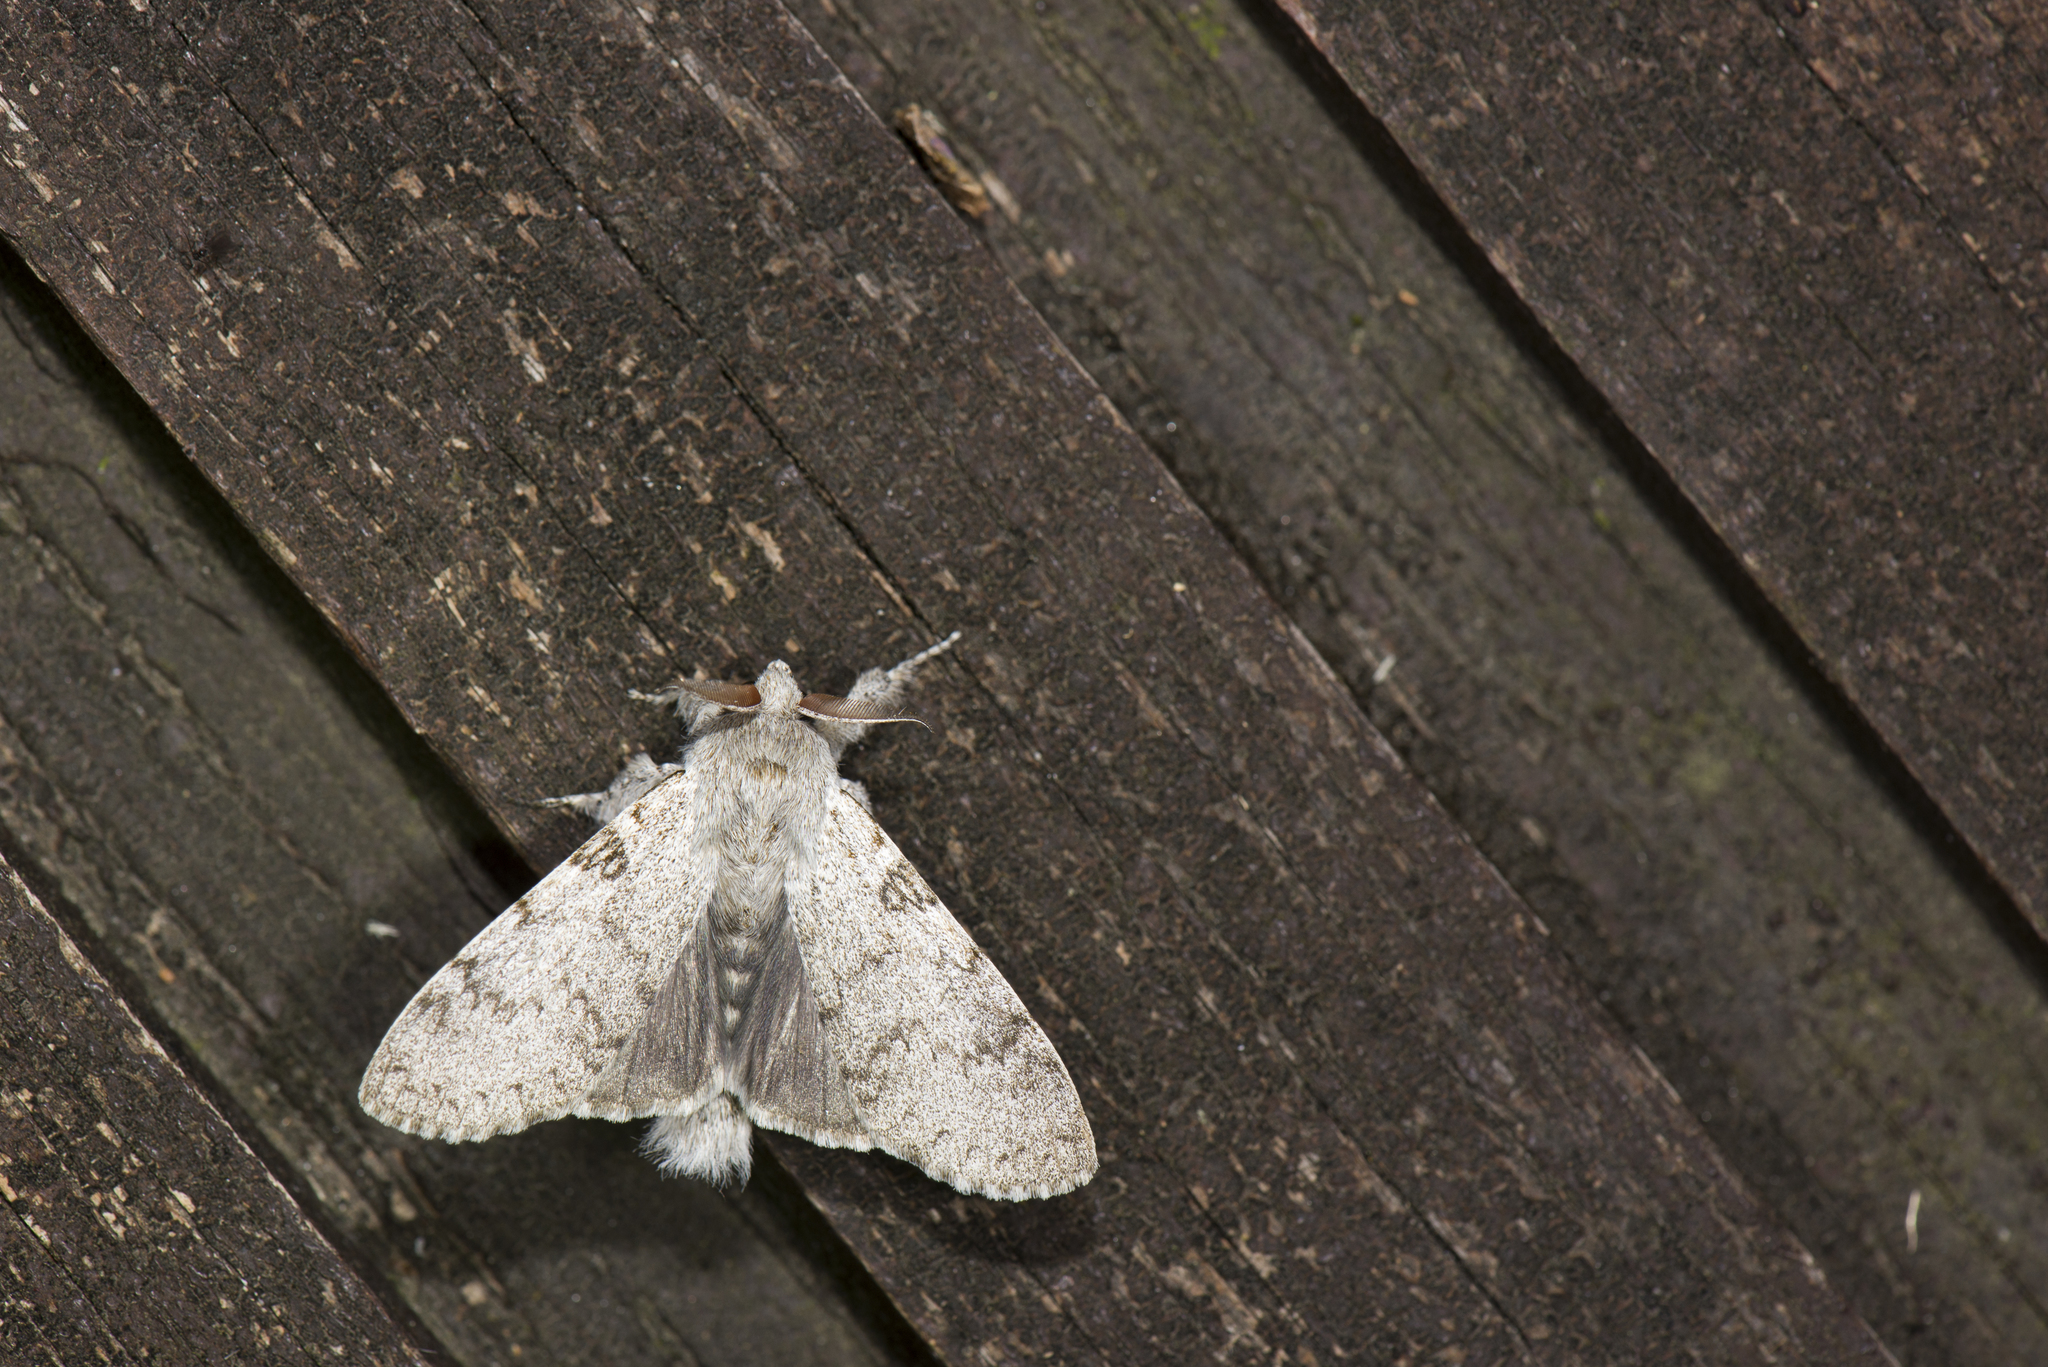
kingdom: Animalia
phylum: Arthropoda
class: Insecta
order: Lepidoptera
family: Erebidae
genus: Calliteara
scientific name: Calliteara lunulata
